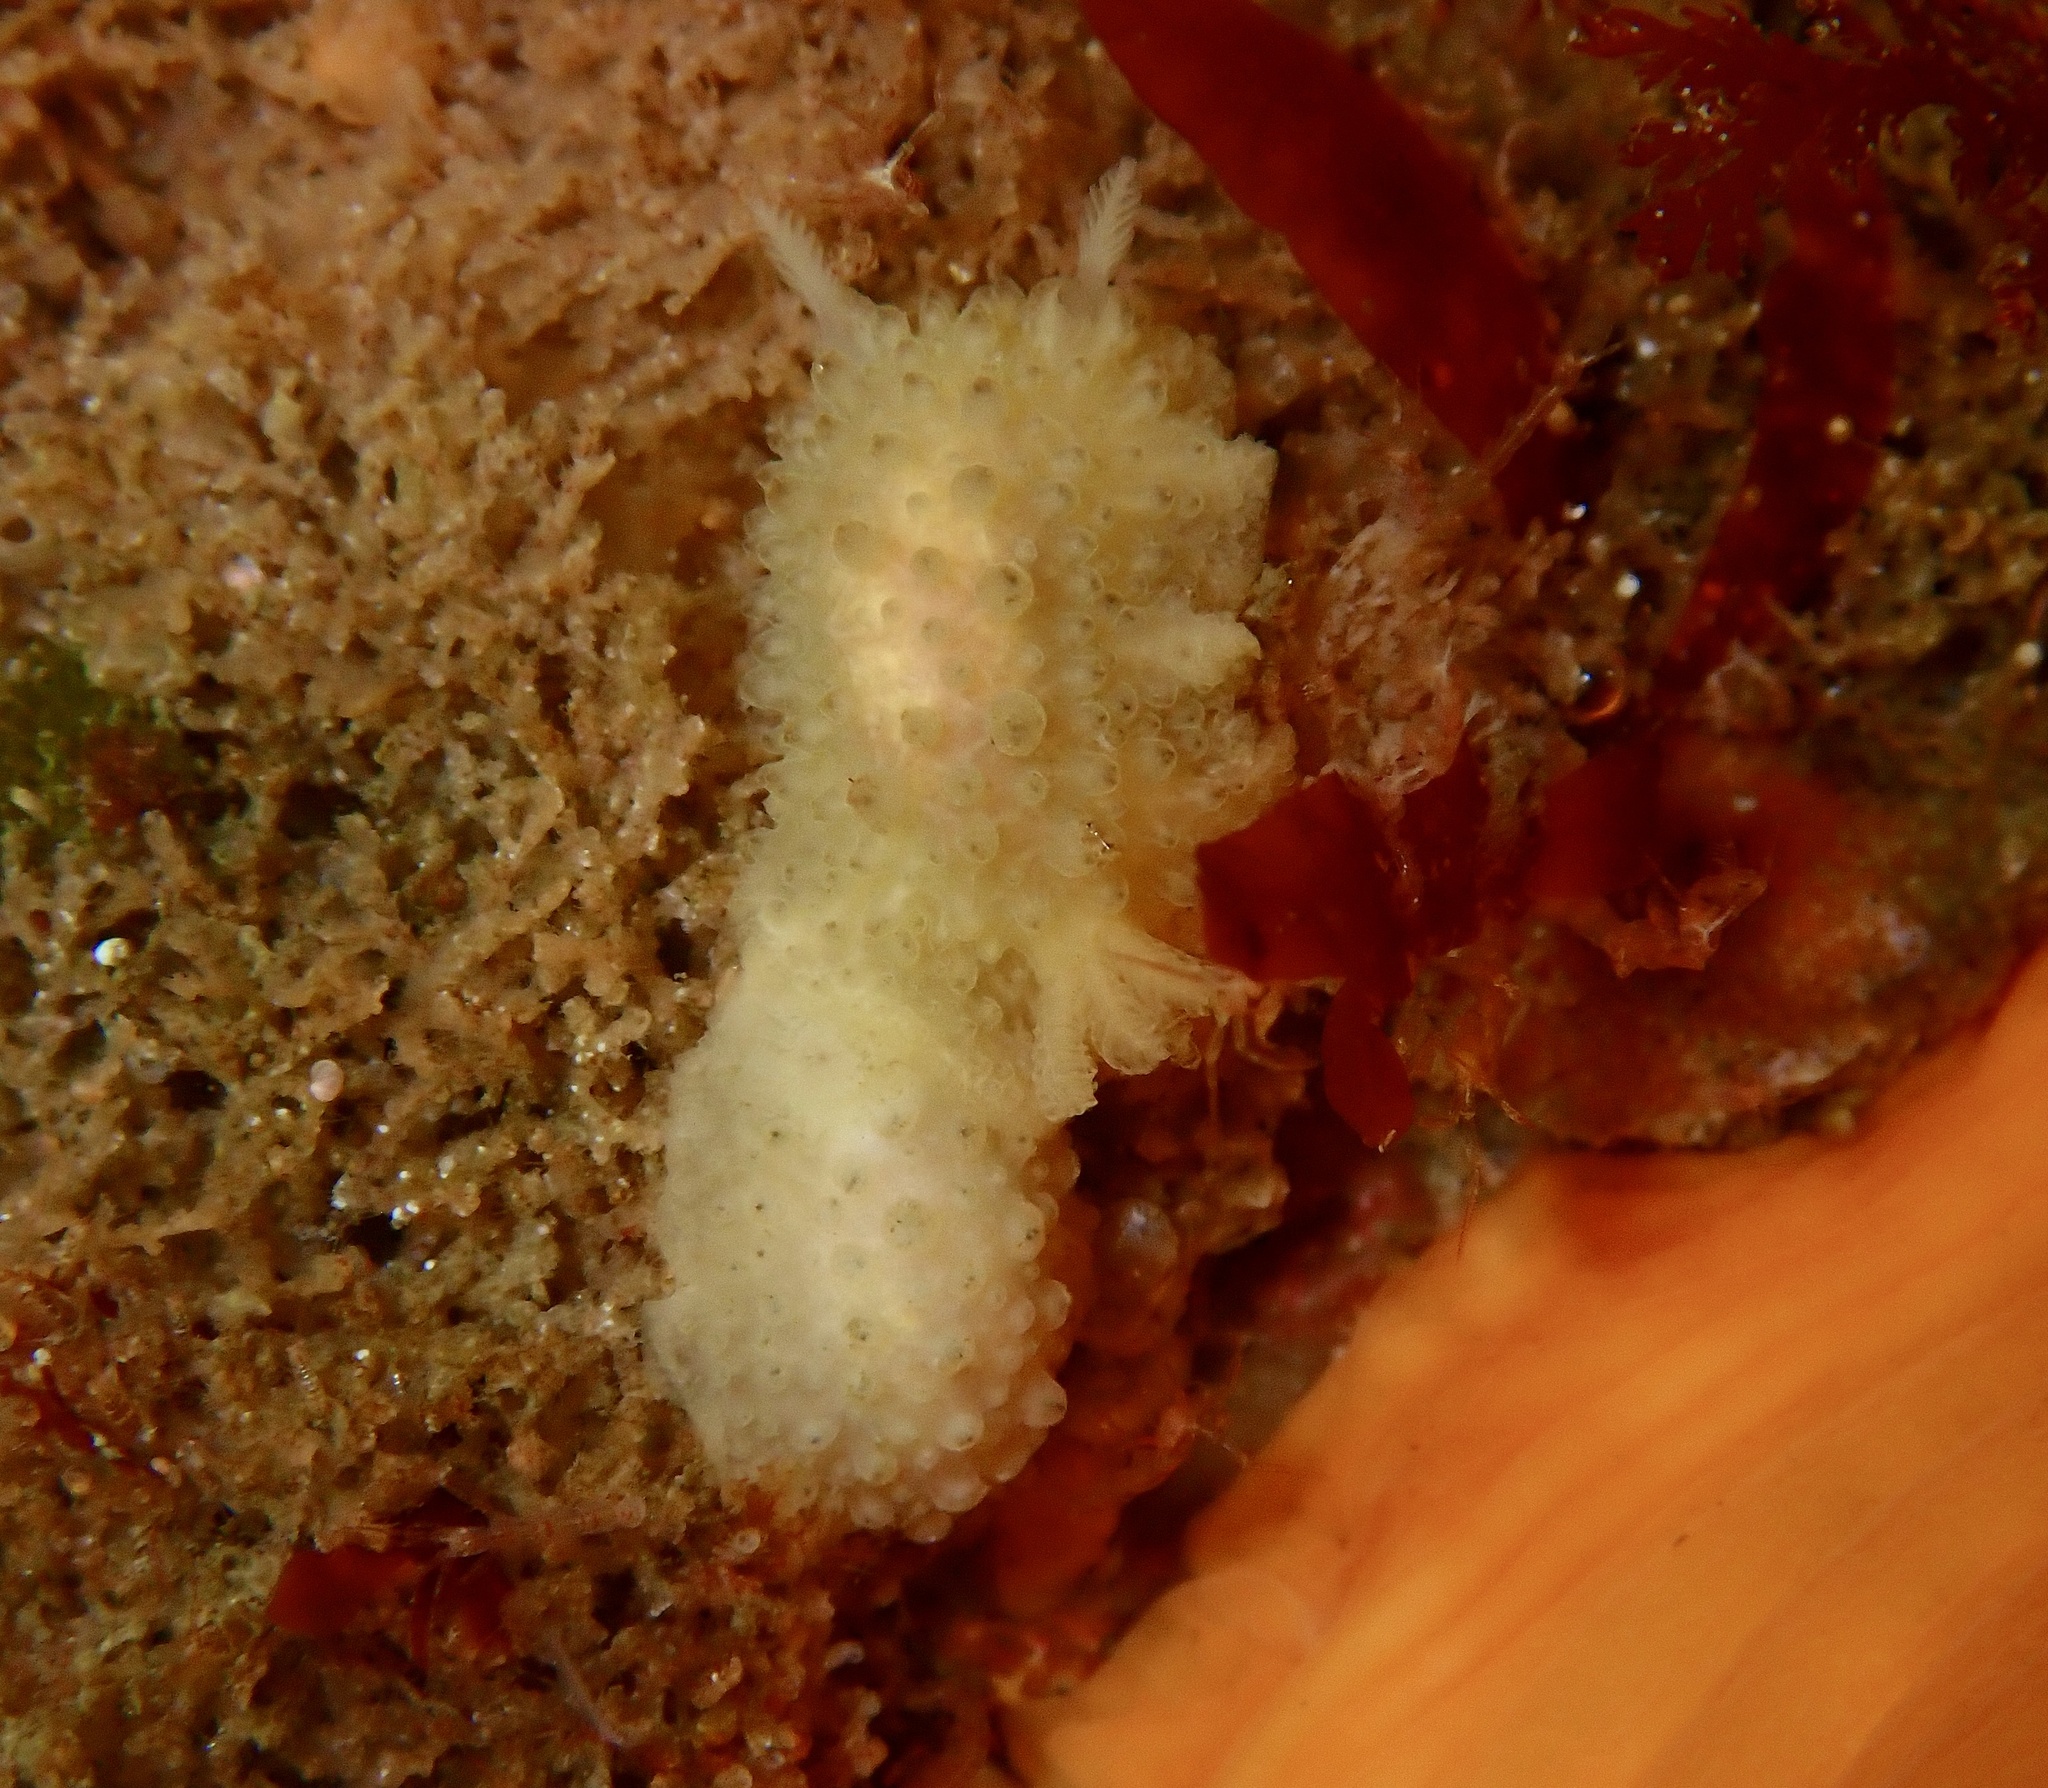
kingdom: Animalia
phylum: Mollusca
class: Gastropoda
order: Nudibranchia
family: Dorididae
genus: Doris
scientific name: Doris ocelligera
